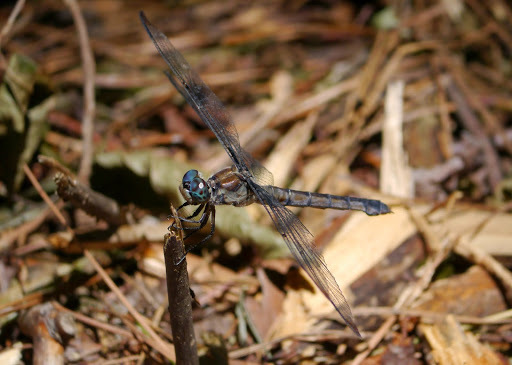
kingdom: Animalia
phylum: Arthropoda
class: Insecta
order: Odonata
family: Libellulidae
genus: Libellula
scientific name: Libellula vibrans
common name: Great blue skimmer
